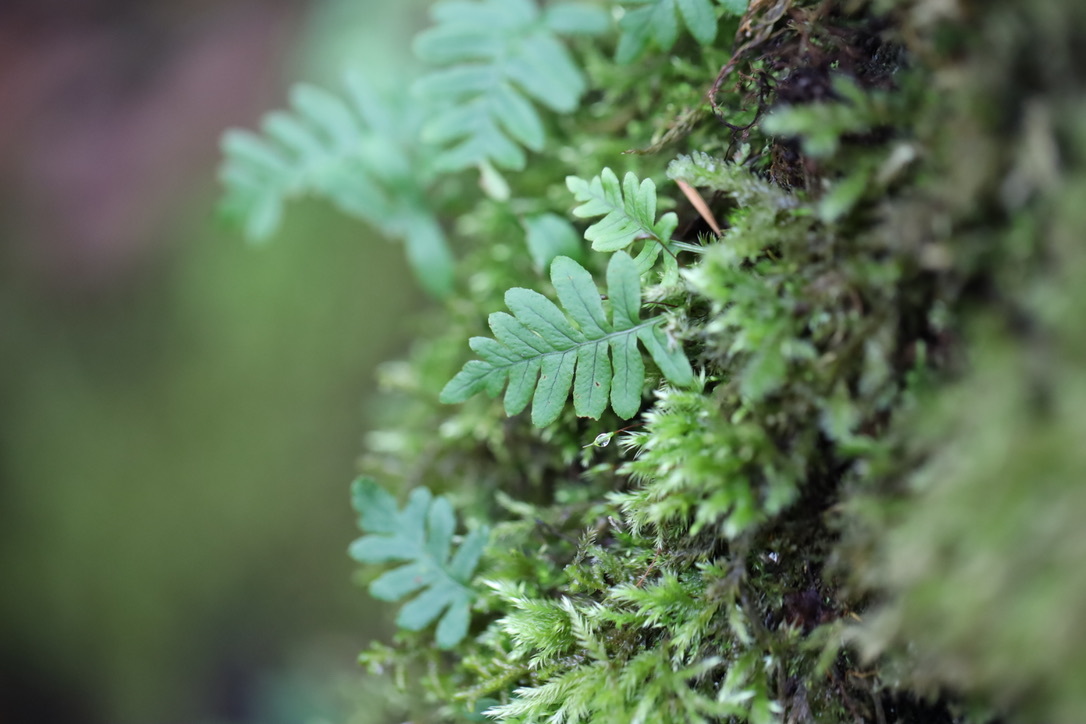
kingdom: Plantae
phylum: Tracheophyta
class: Polypodiopsida
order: Polypodiales
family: Polypodiaceae
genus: Polypodium
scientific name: Polypodium glycyrrhiza
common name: Licorice fern
